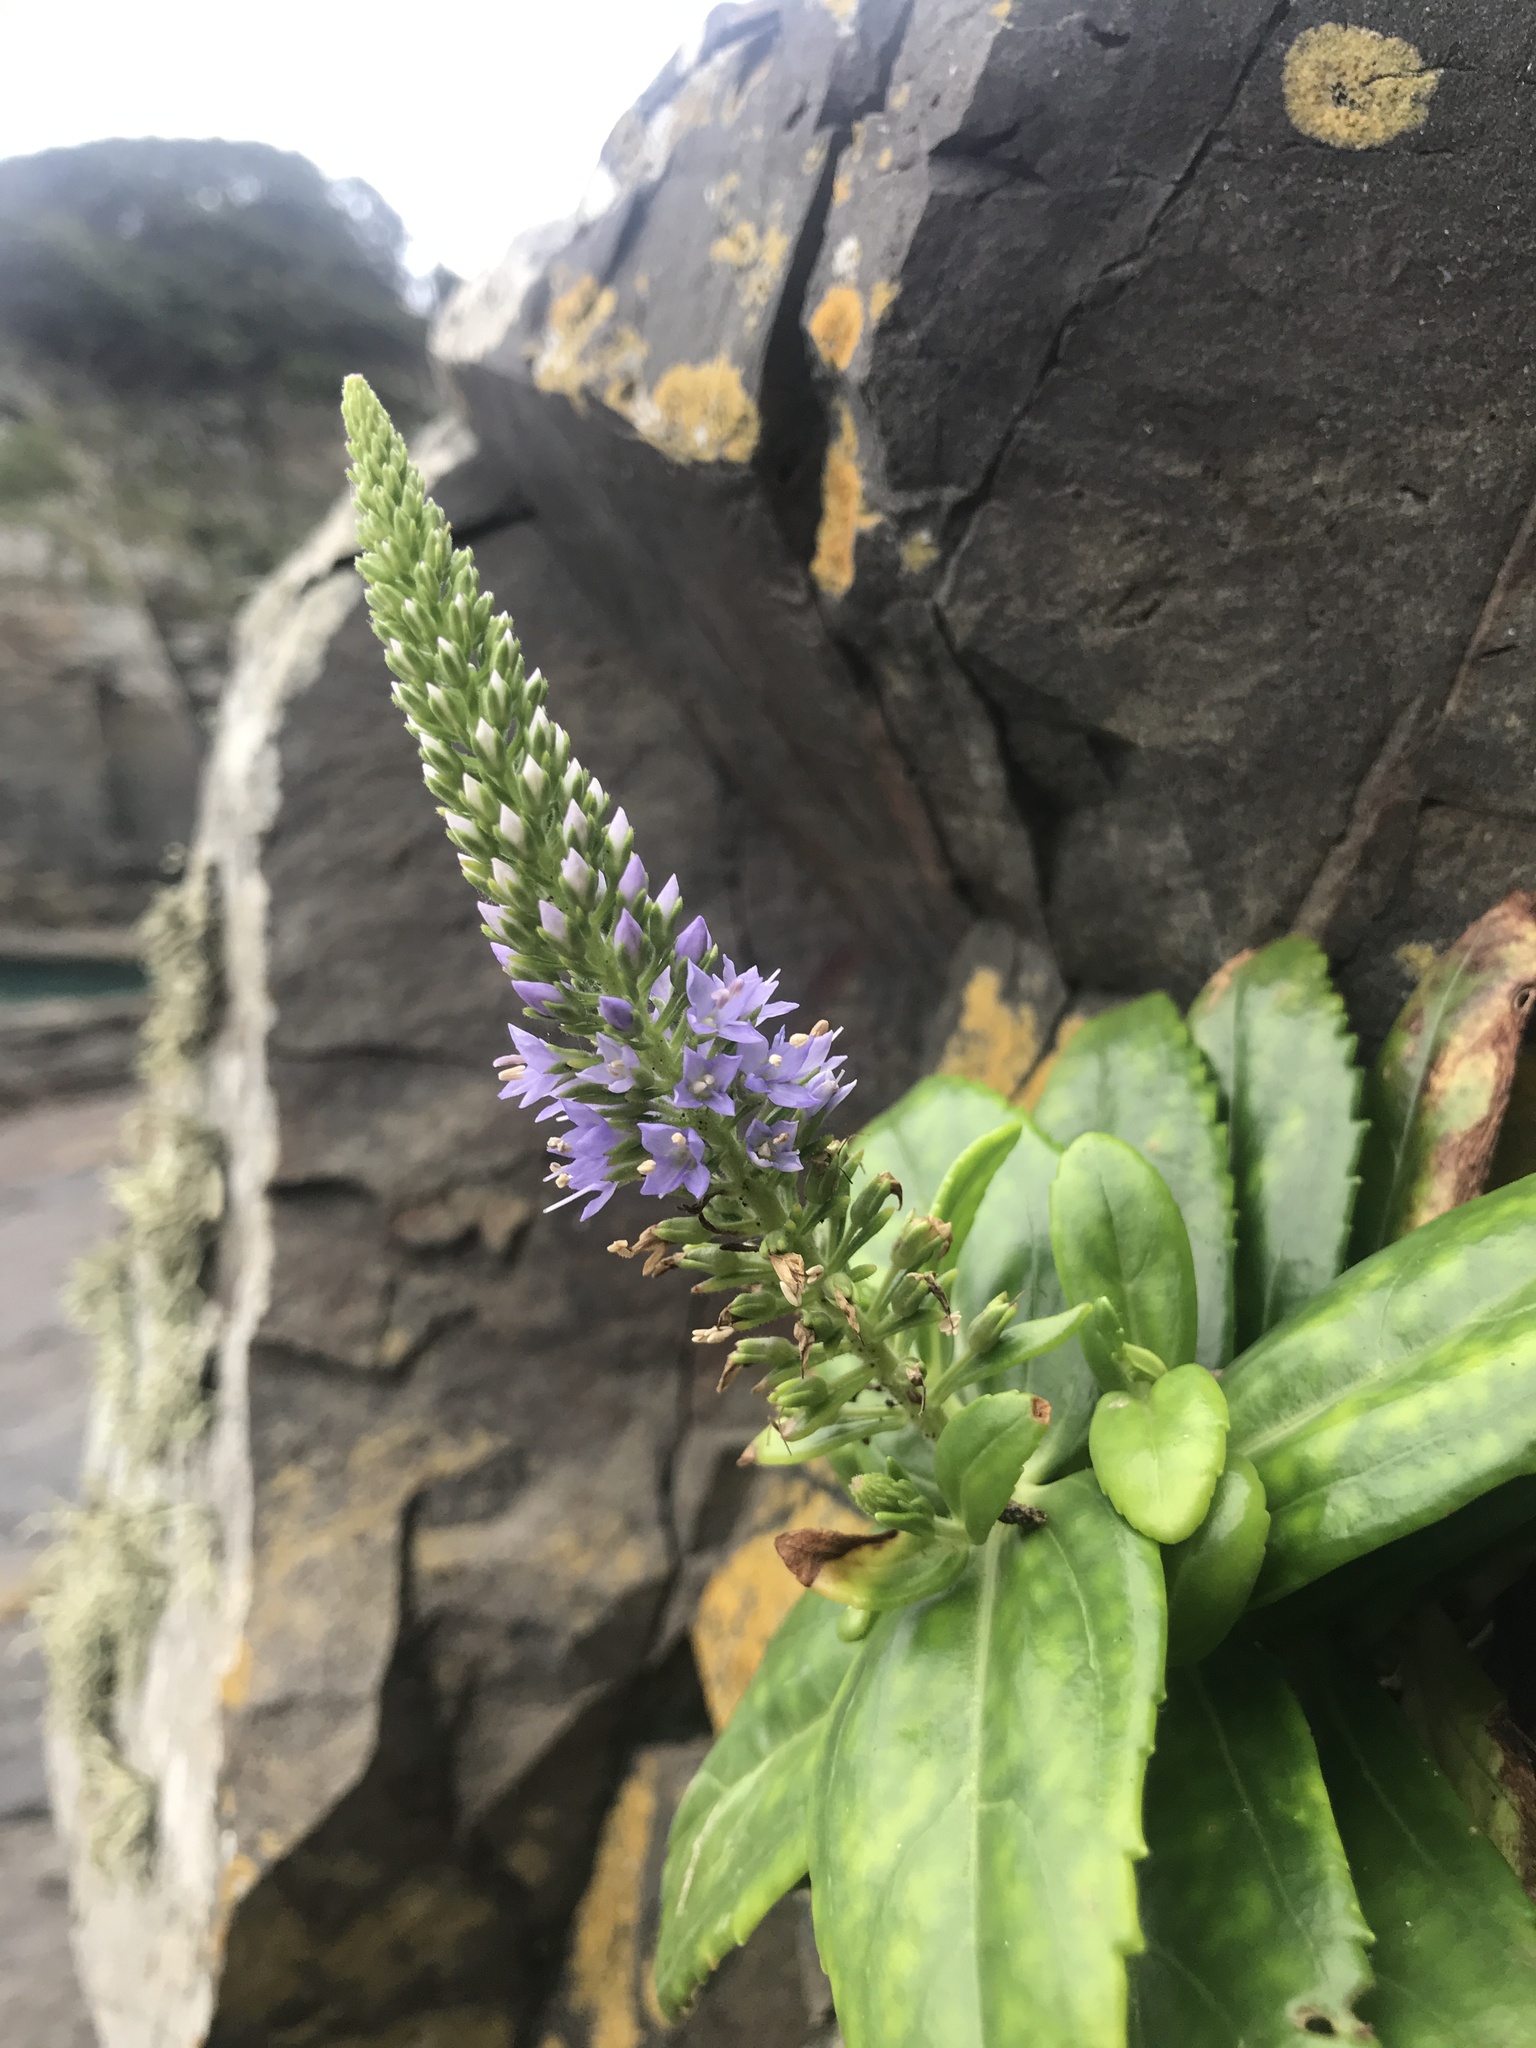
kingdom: Plantae
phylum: Tracheophyta
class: Magnoliopsida
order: Lamiales
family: Plantaginaceae
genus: Veronica
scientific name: Veronica sieboldiana
